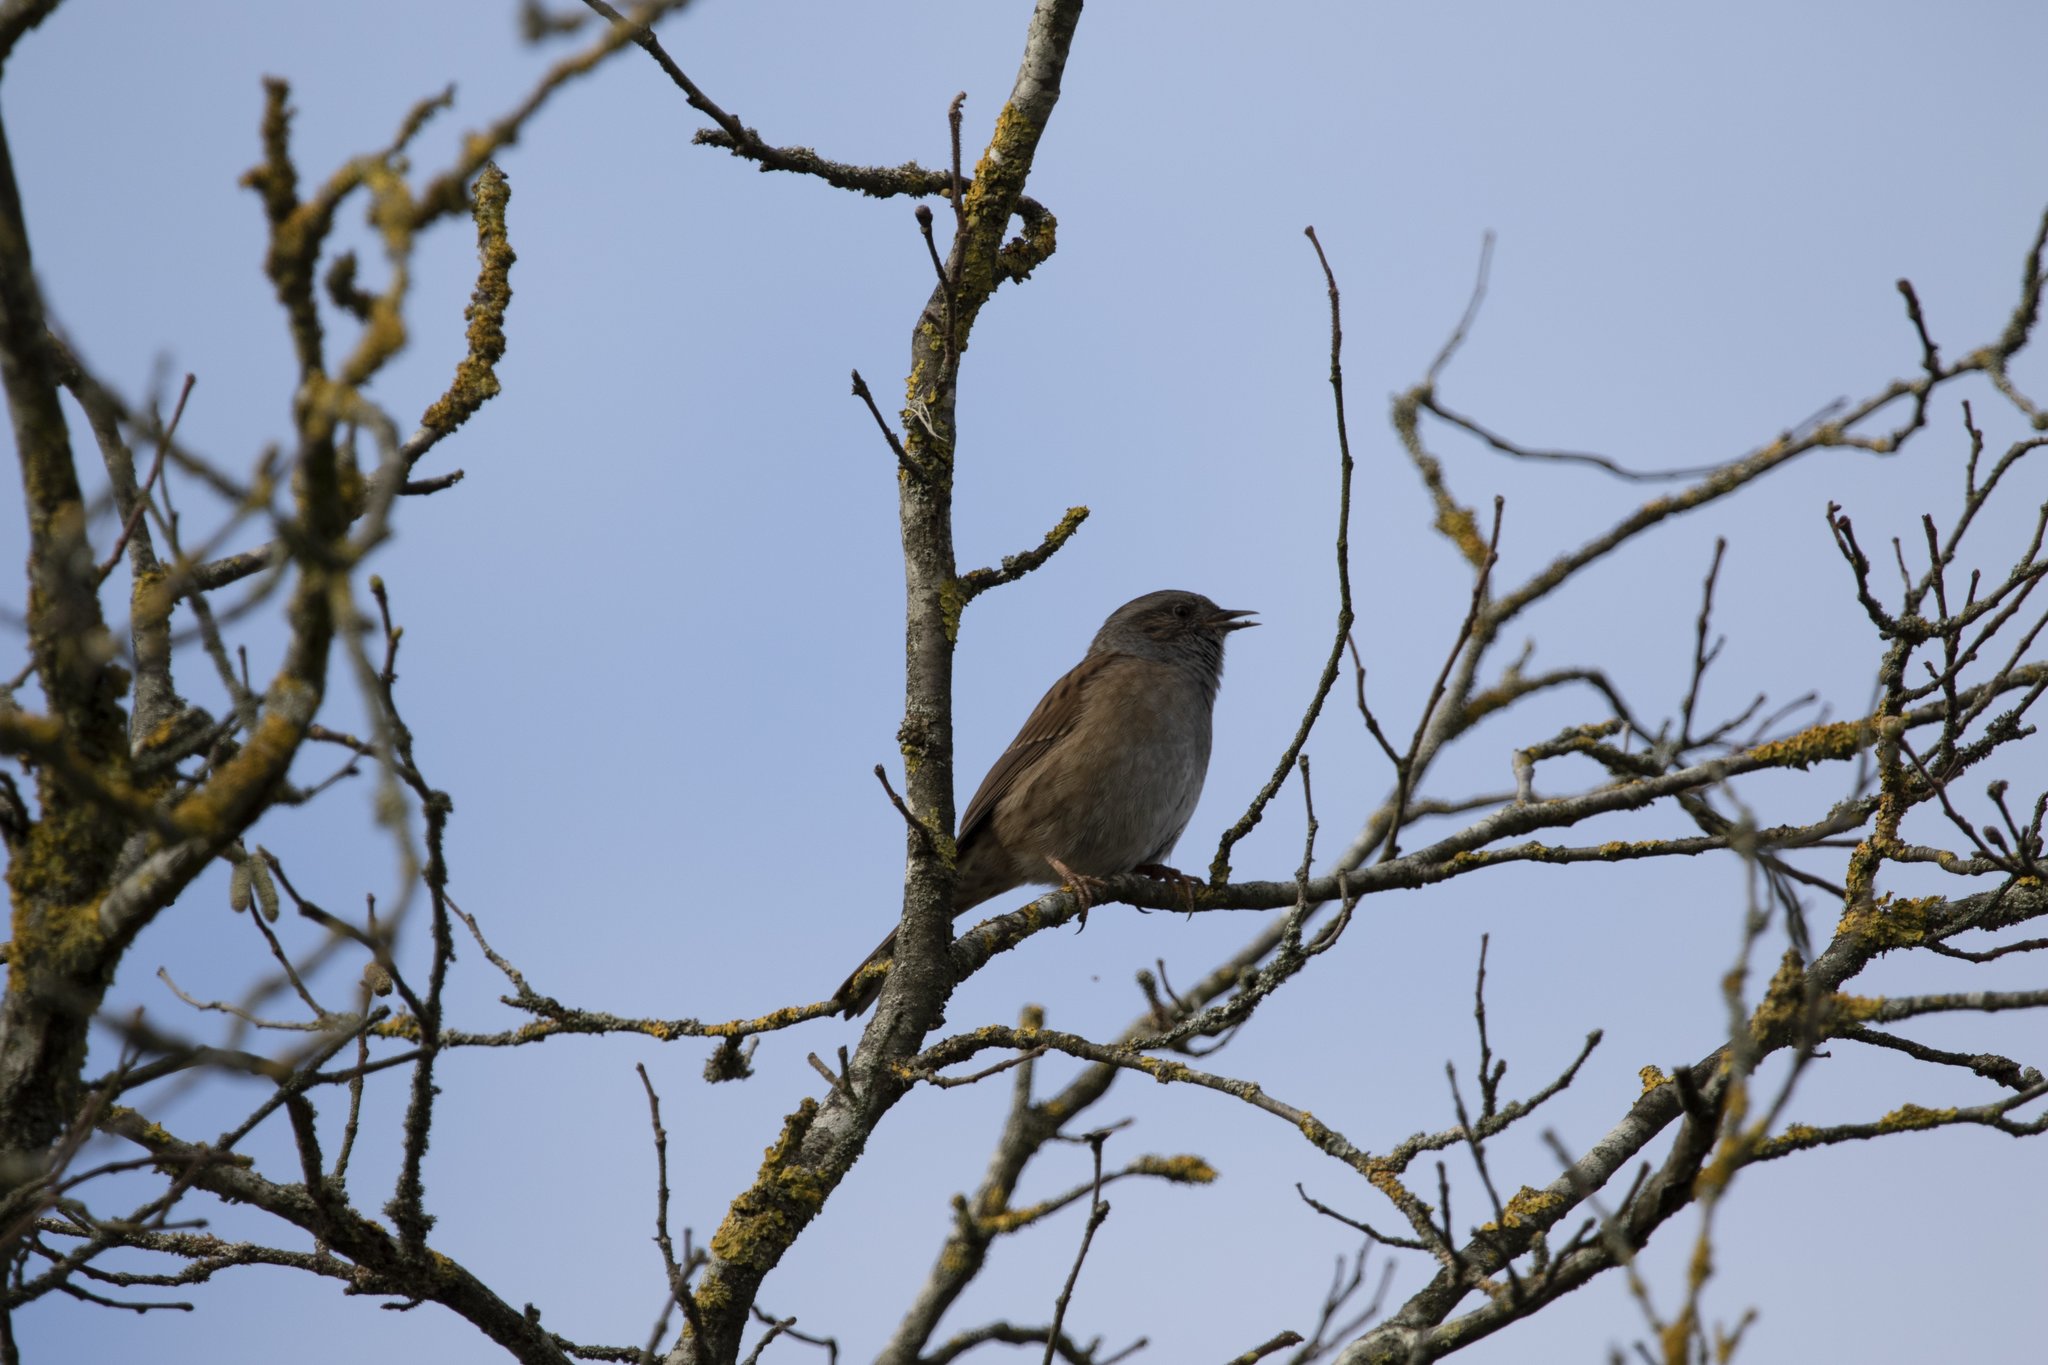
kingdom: Animalia
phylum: Chordata
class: Aves
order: Passeriformes
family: Prunellidae
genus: Prunella
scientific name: Prunella modularis
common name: Dunnock
